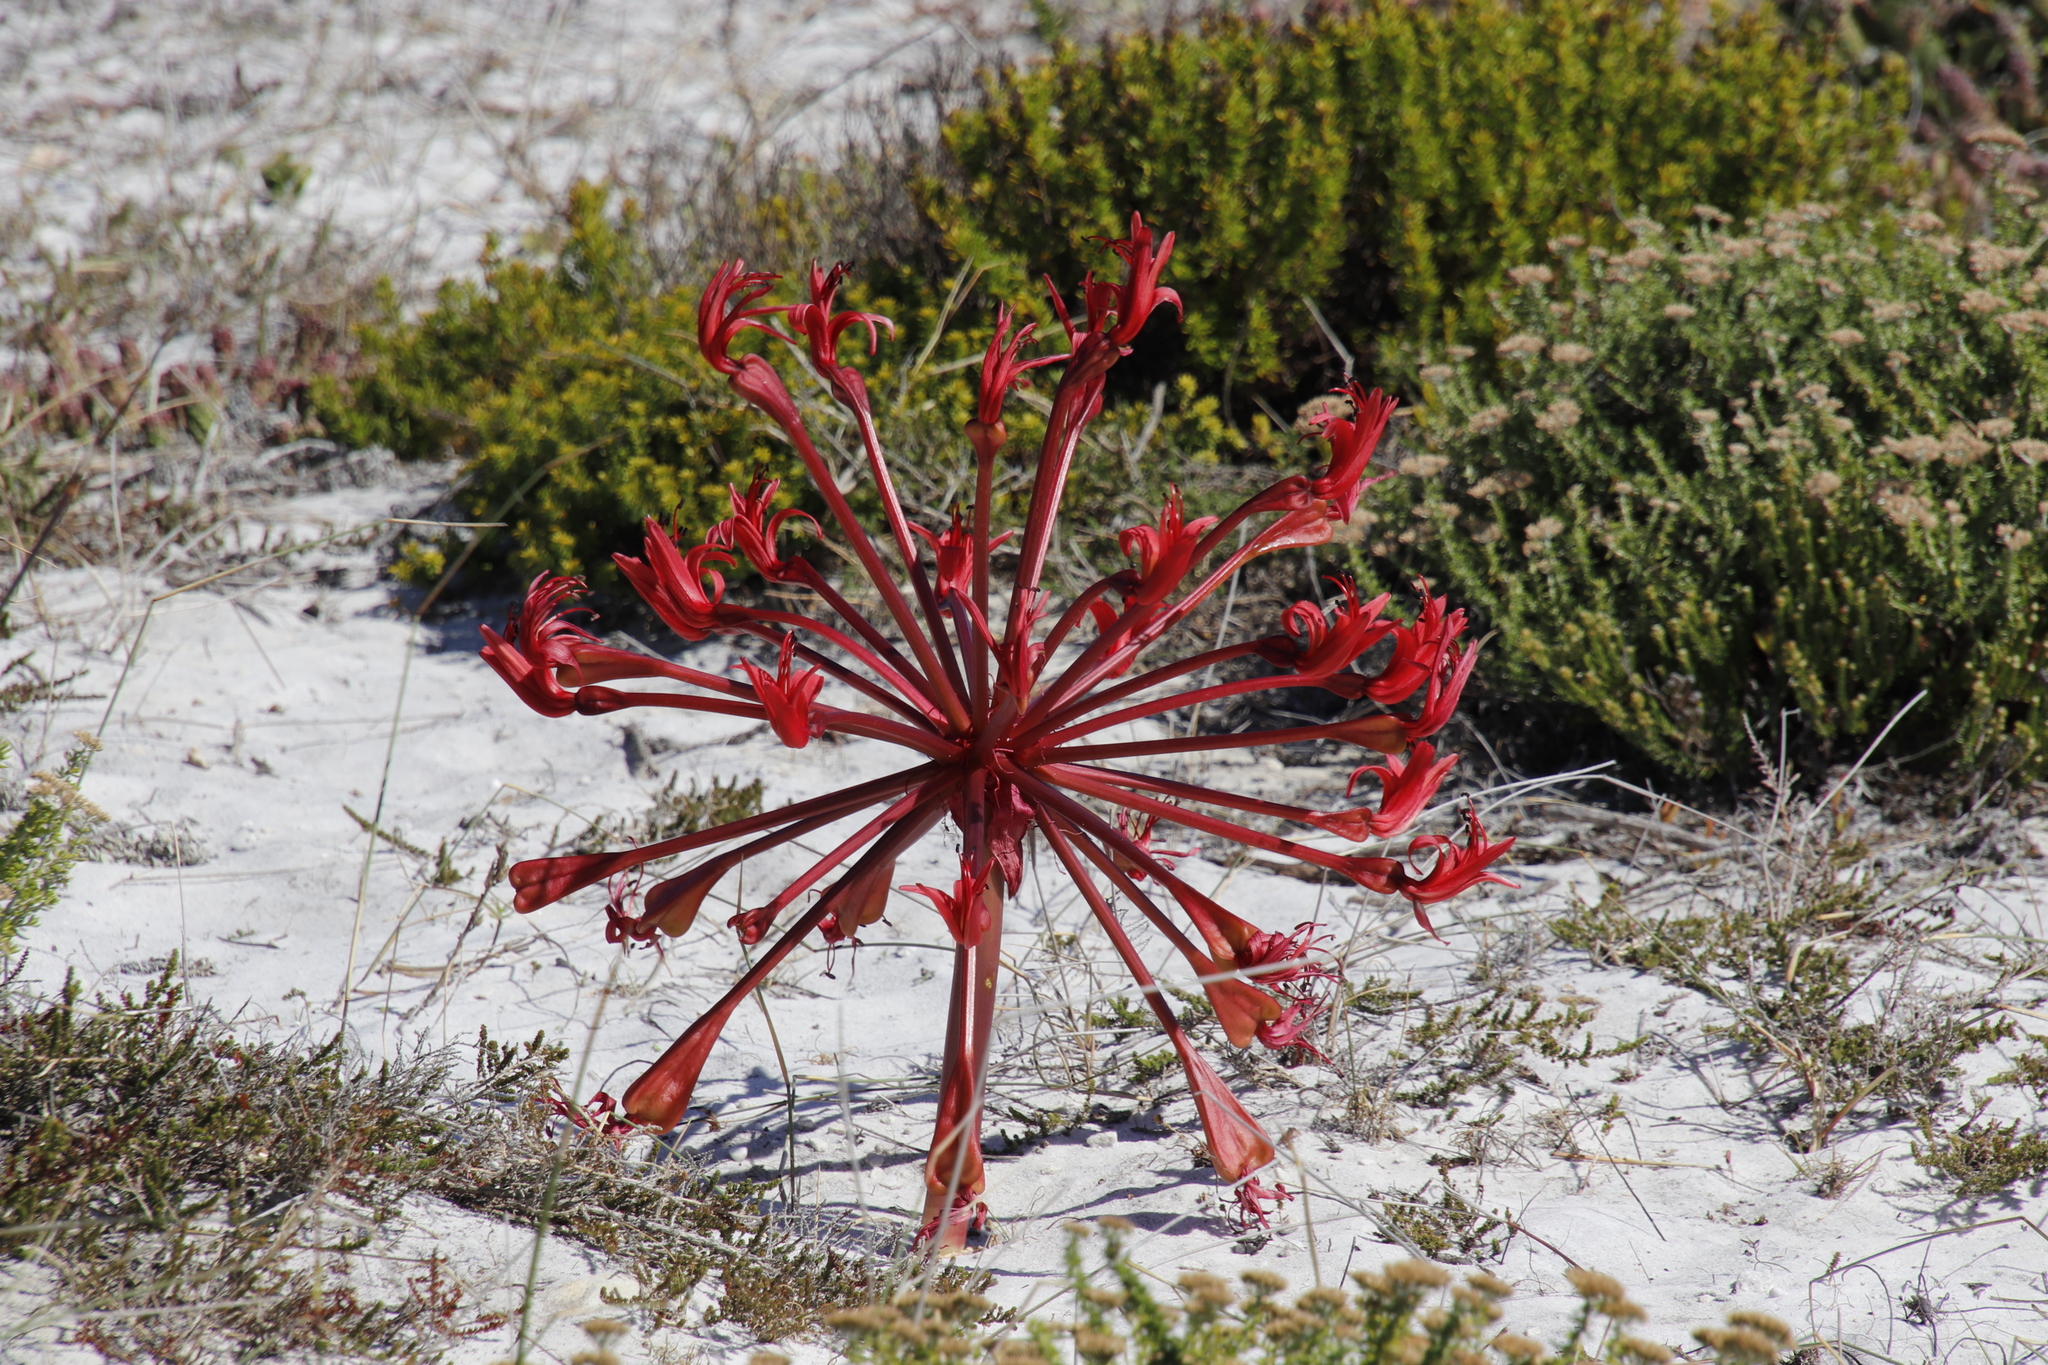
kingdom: Plantae
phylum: Tracheophyta
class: Liliopsida
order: Asparagales
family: Amaryllidaceae
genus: Brunsvigia
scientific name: Brunsvigia orientalis
